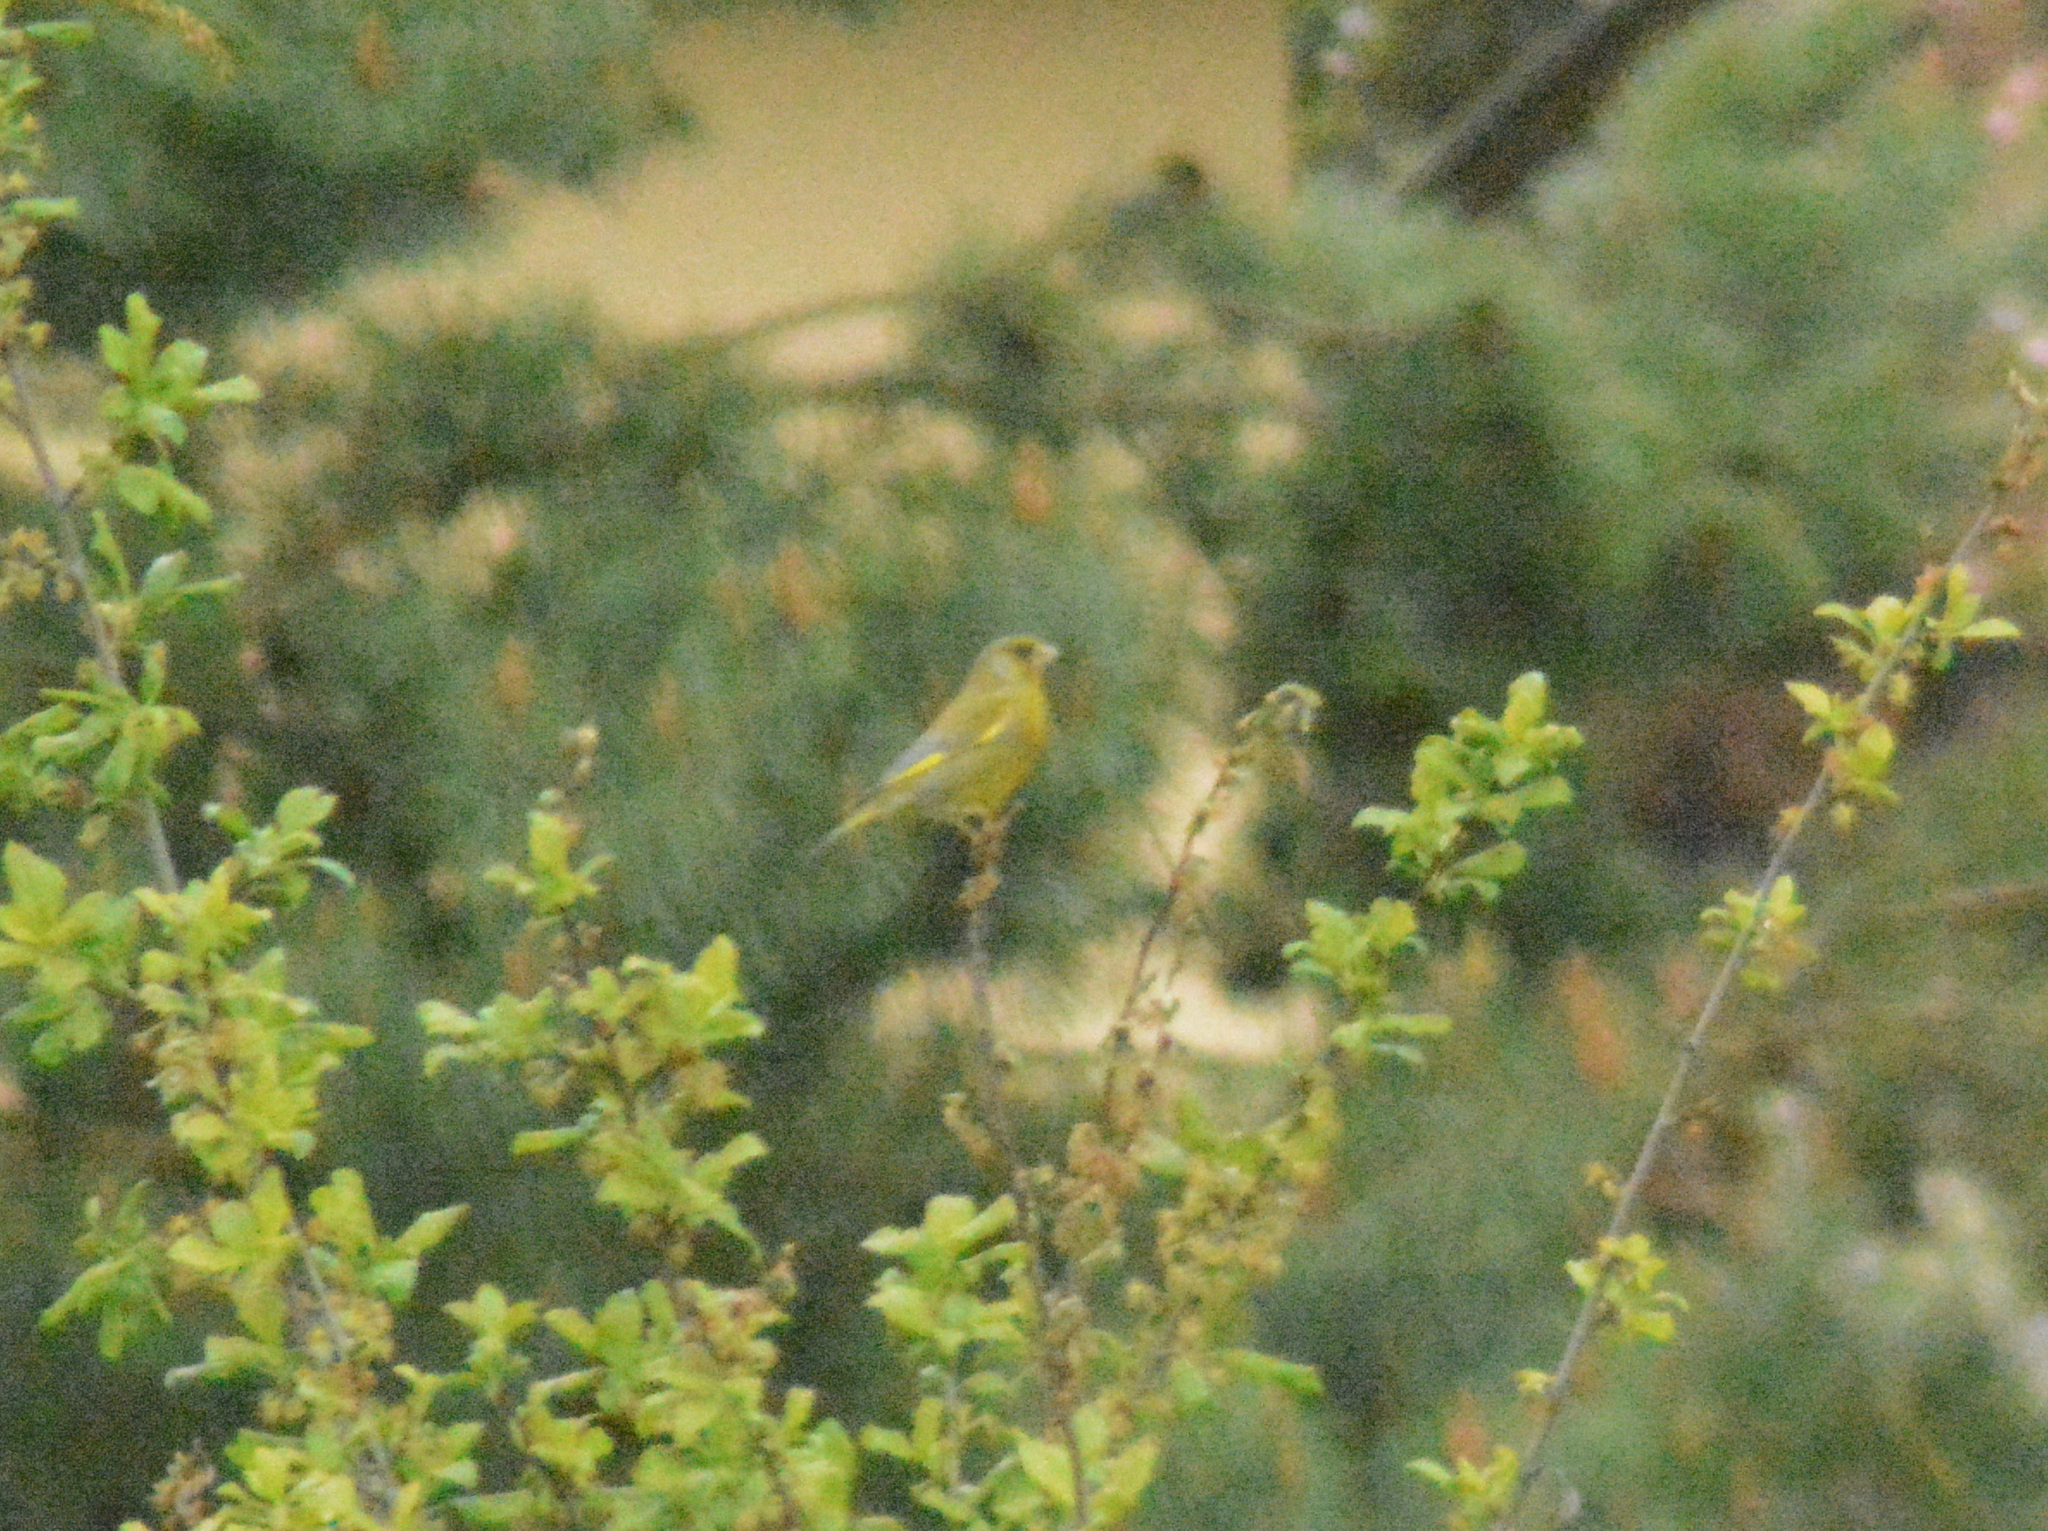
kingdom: Plantae
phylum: Tracheophyta
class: Liliopsida
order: Poales
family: Poaceae
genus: Chloris
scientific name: Chloris chloris
